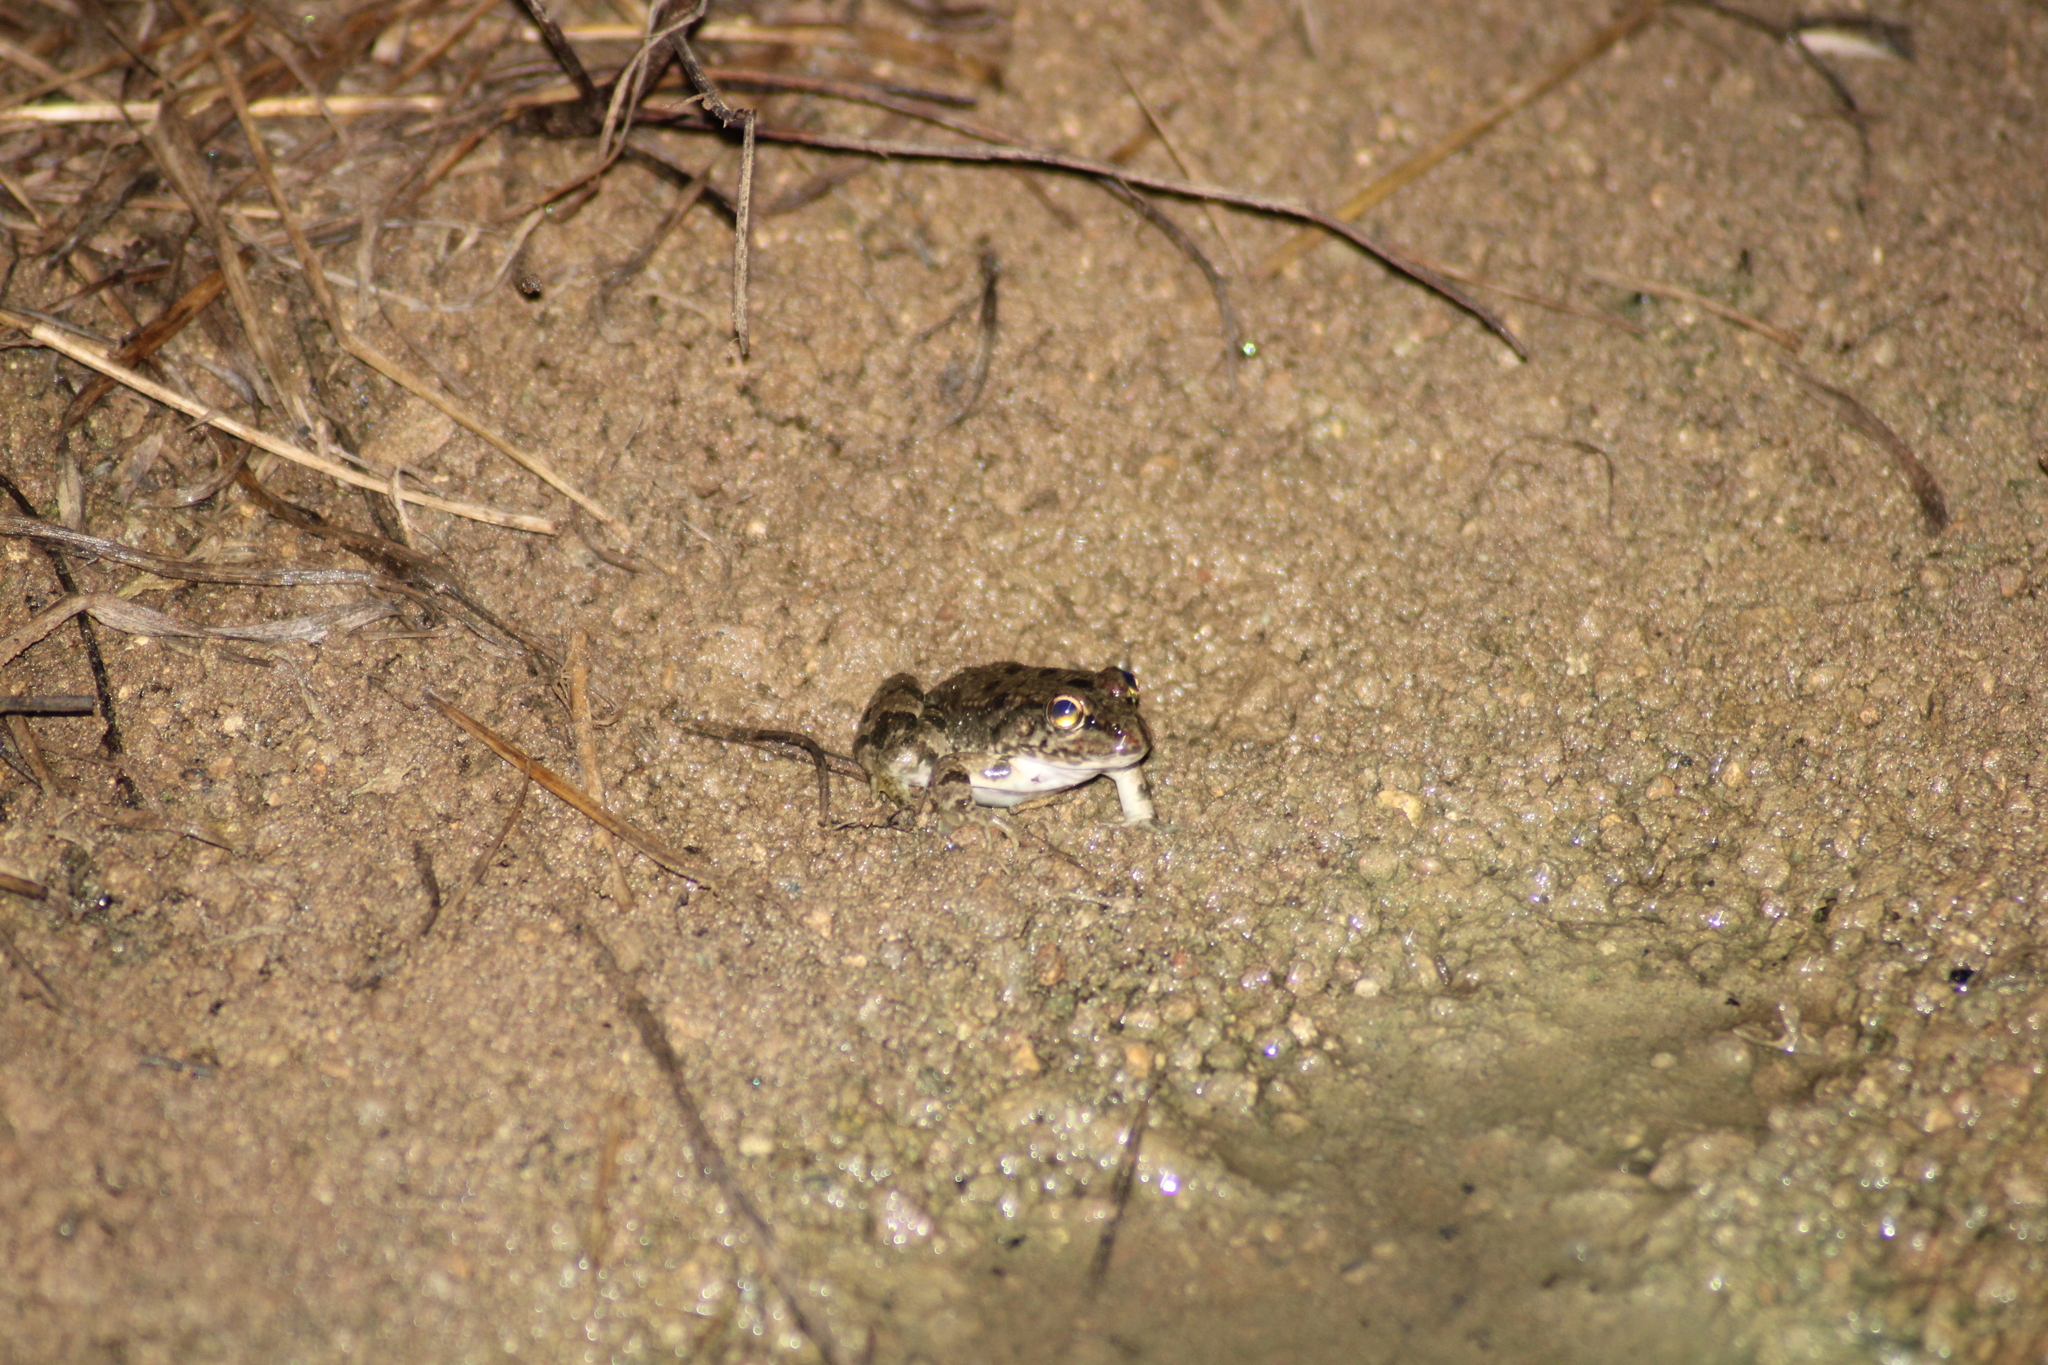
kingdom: Animalia
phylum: Chordata
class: Amphibia
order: Anura
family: Ranidae
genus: Pelophylax
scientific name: Pelophylax ridibundus
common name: Marsh frog
